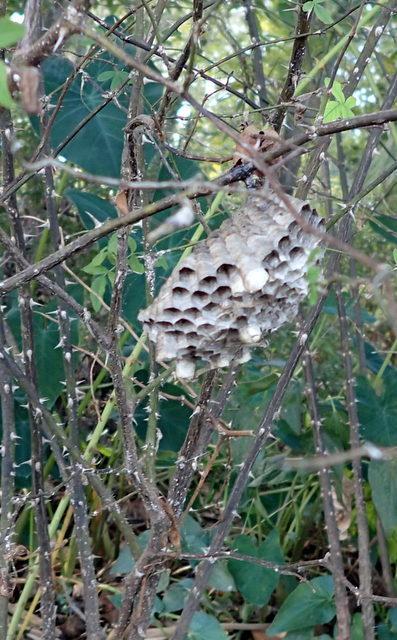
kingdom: Animalia
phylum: Arthropoda
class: Insecta
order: Hymenoptera
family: Vespidae
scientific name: Vespidae
